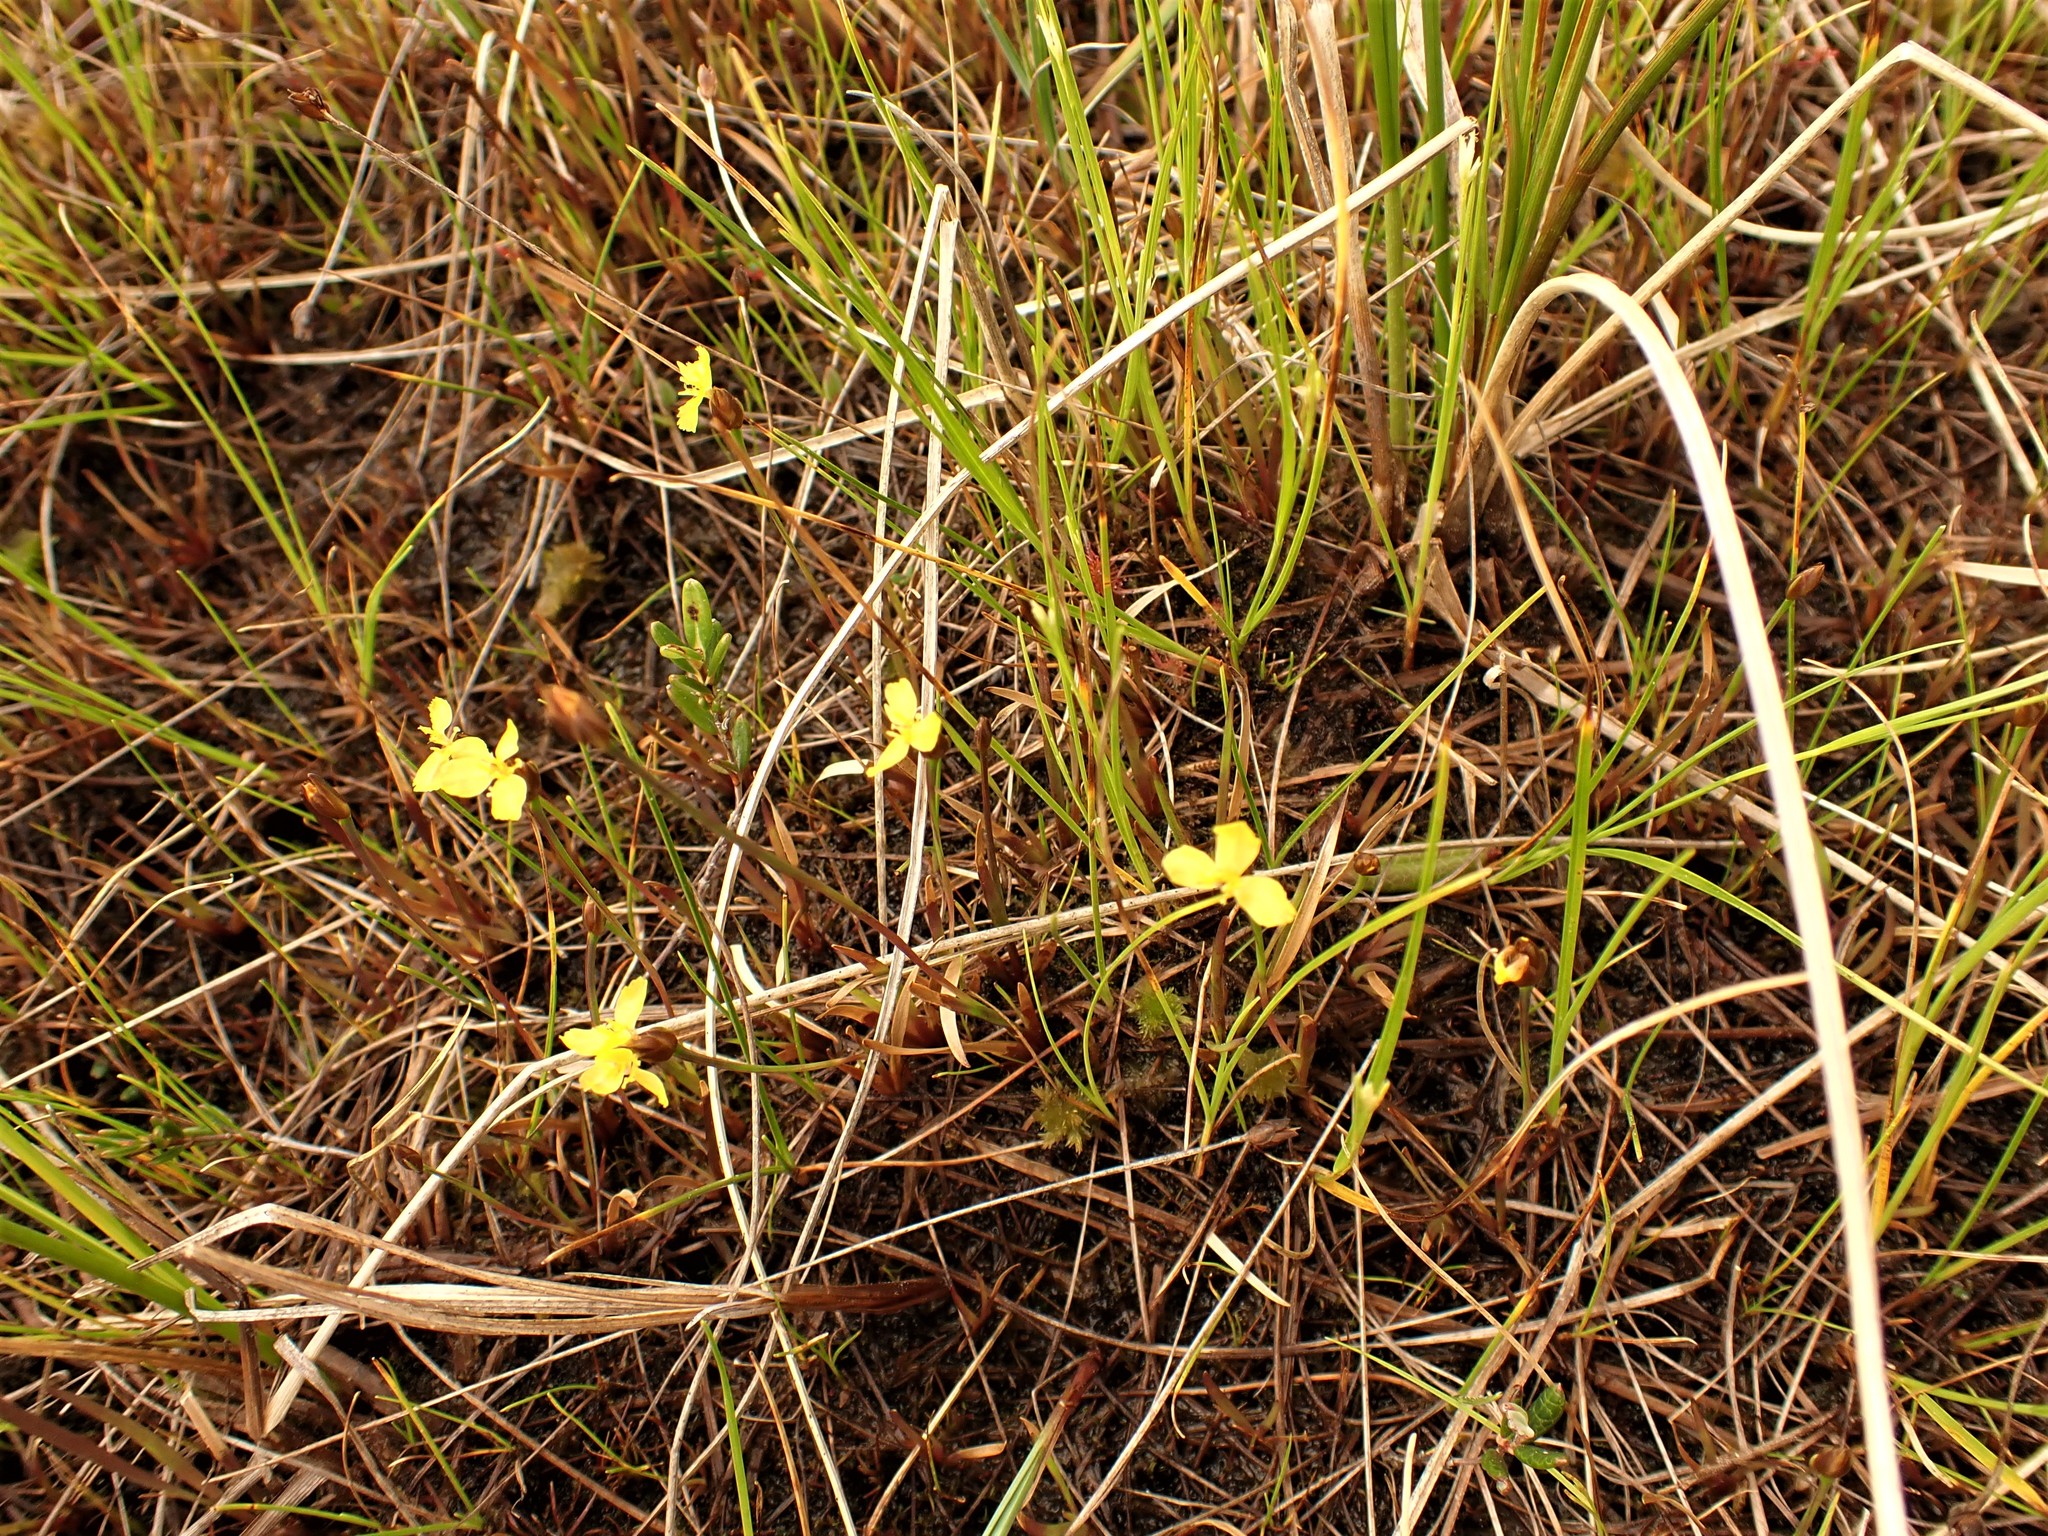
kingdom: Plantae
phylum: Tracheophyta
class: Liliopsida
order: Poales
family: Xyridaceae
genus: Xyris
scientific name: Xyris montana
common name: Northern yellow-eyed-grass
